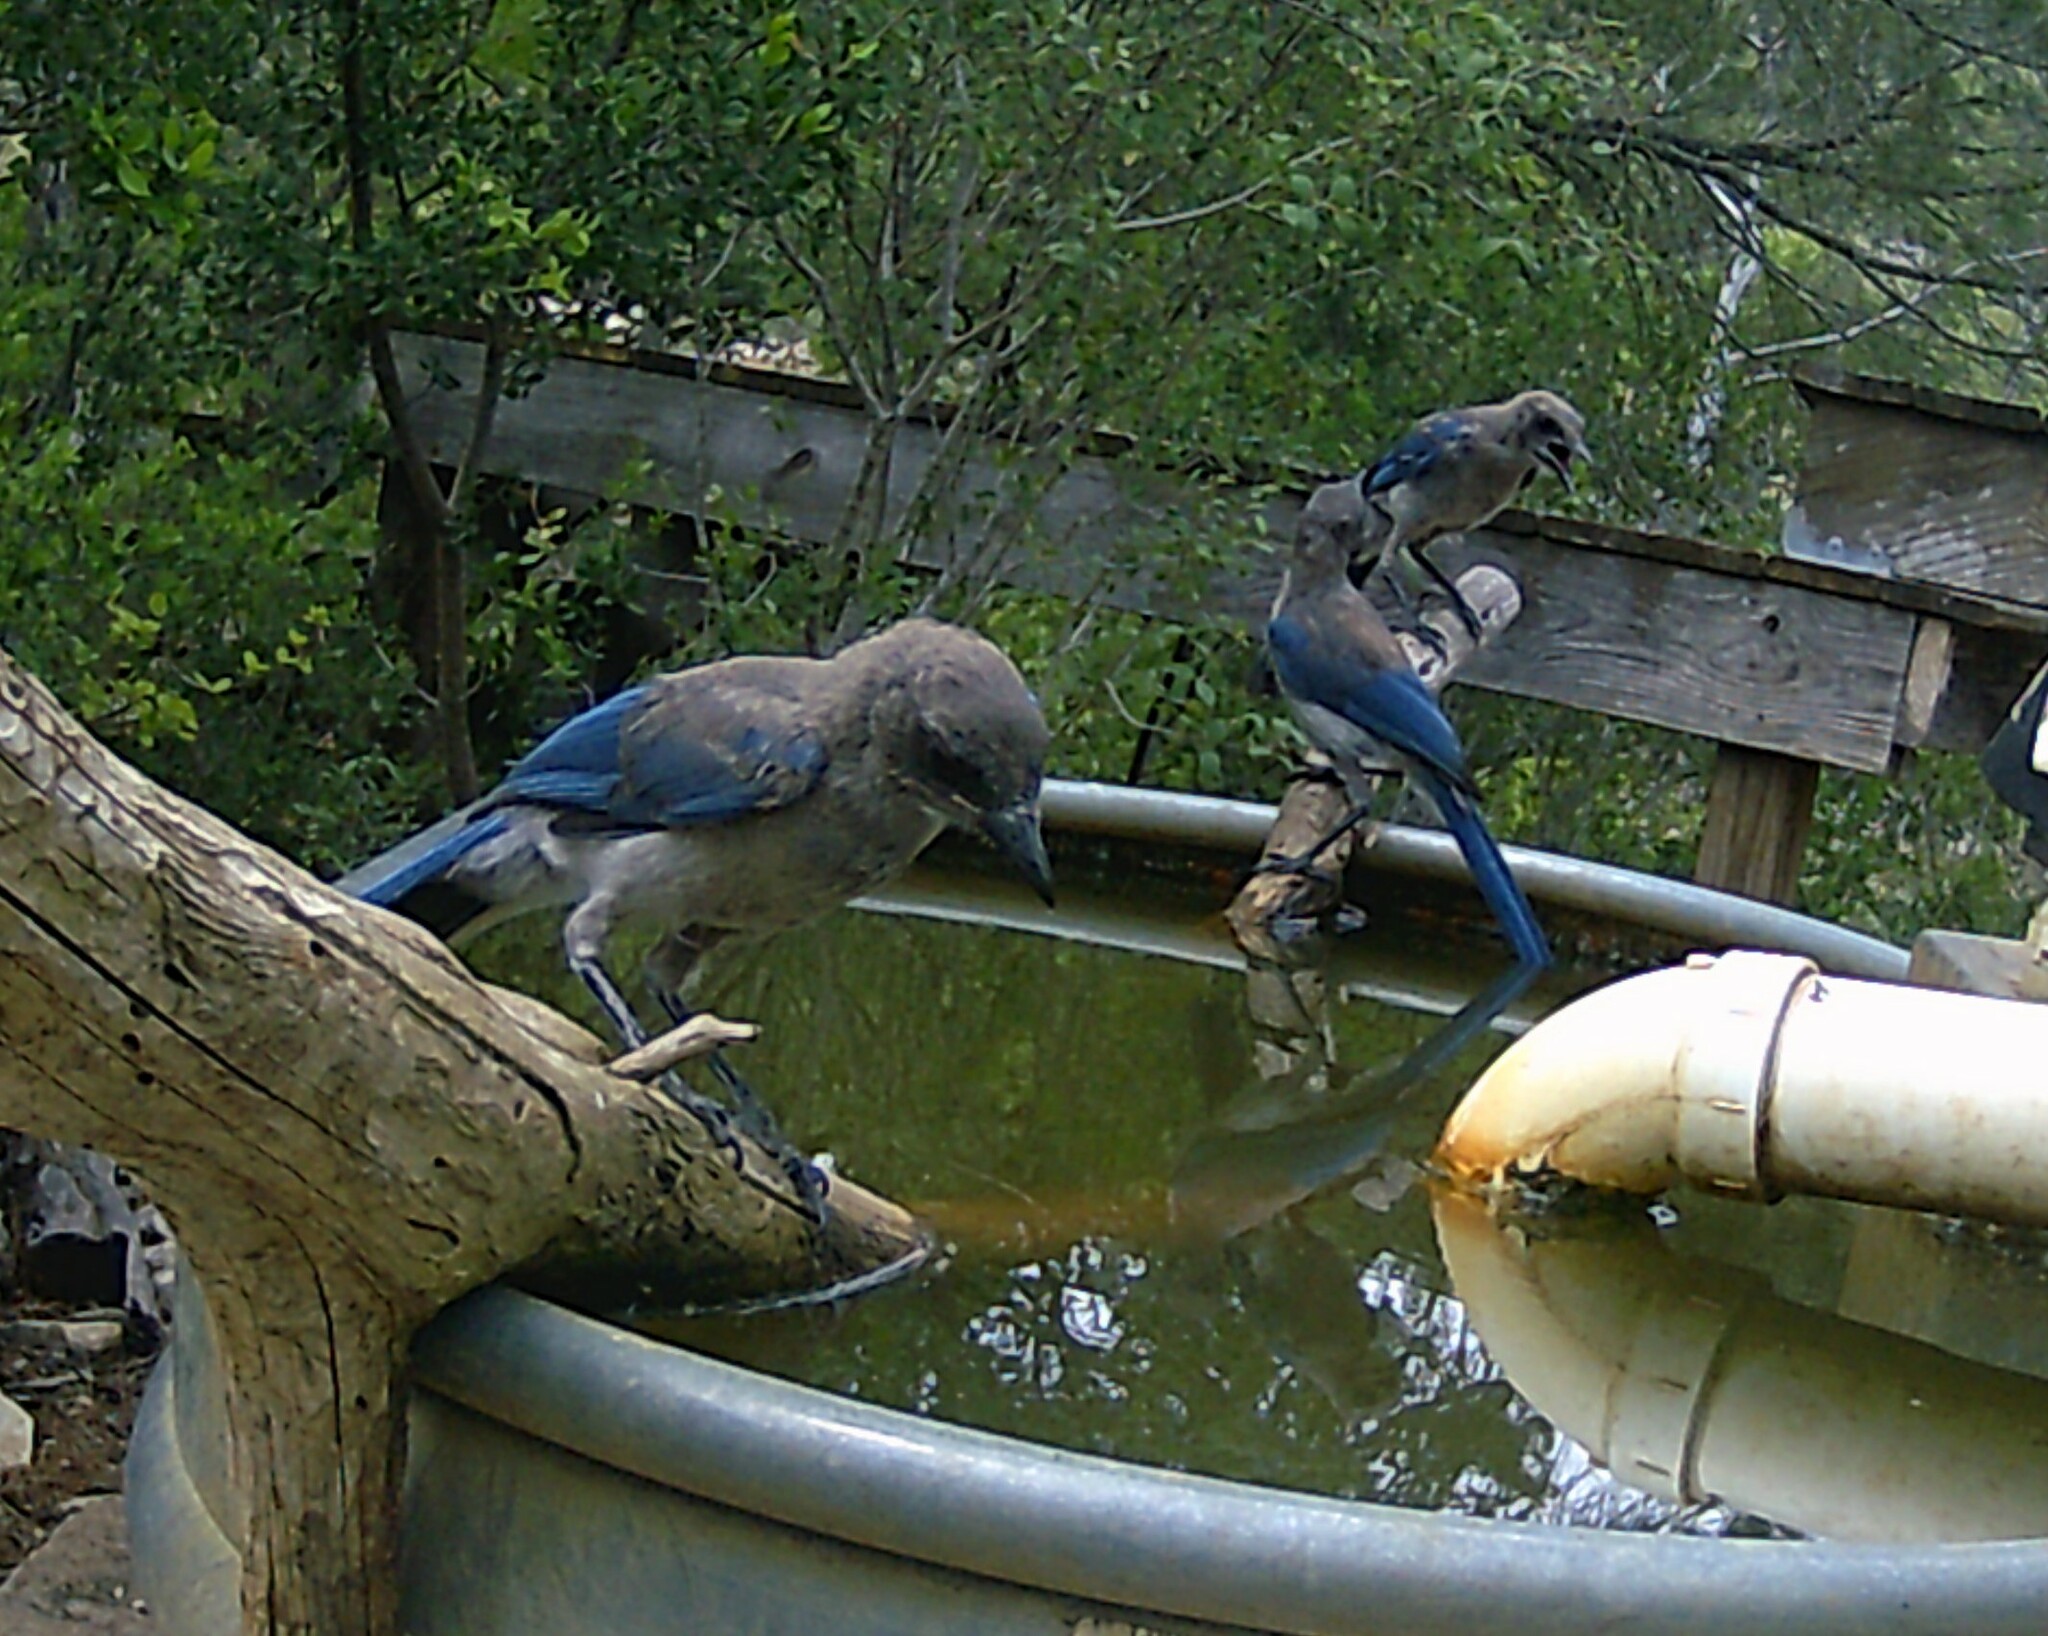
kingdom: Animalia
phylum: Chordata
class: Aves
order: Passeriformes
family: Corvidae
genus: Aphelocoma
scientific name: Aphelocoma woodhouseii
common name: Woodhouse's scrub-jay
